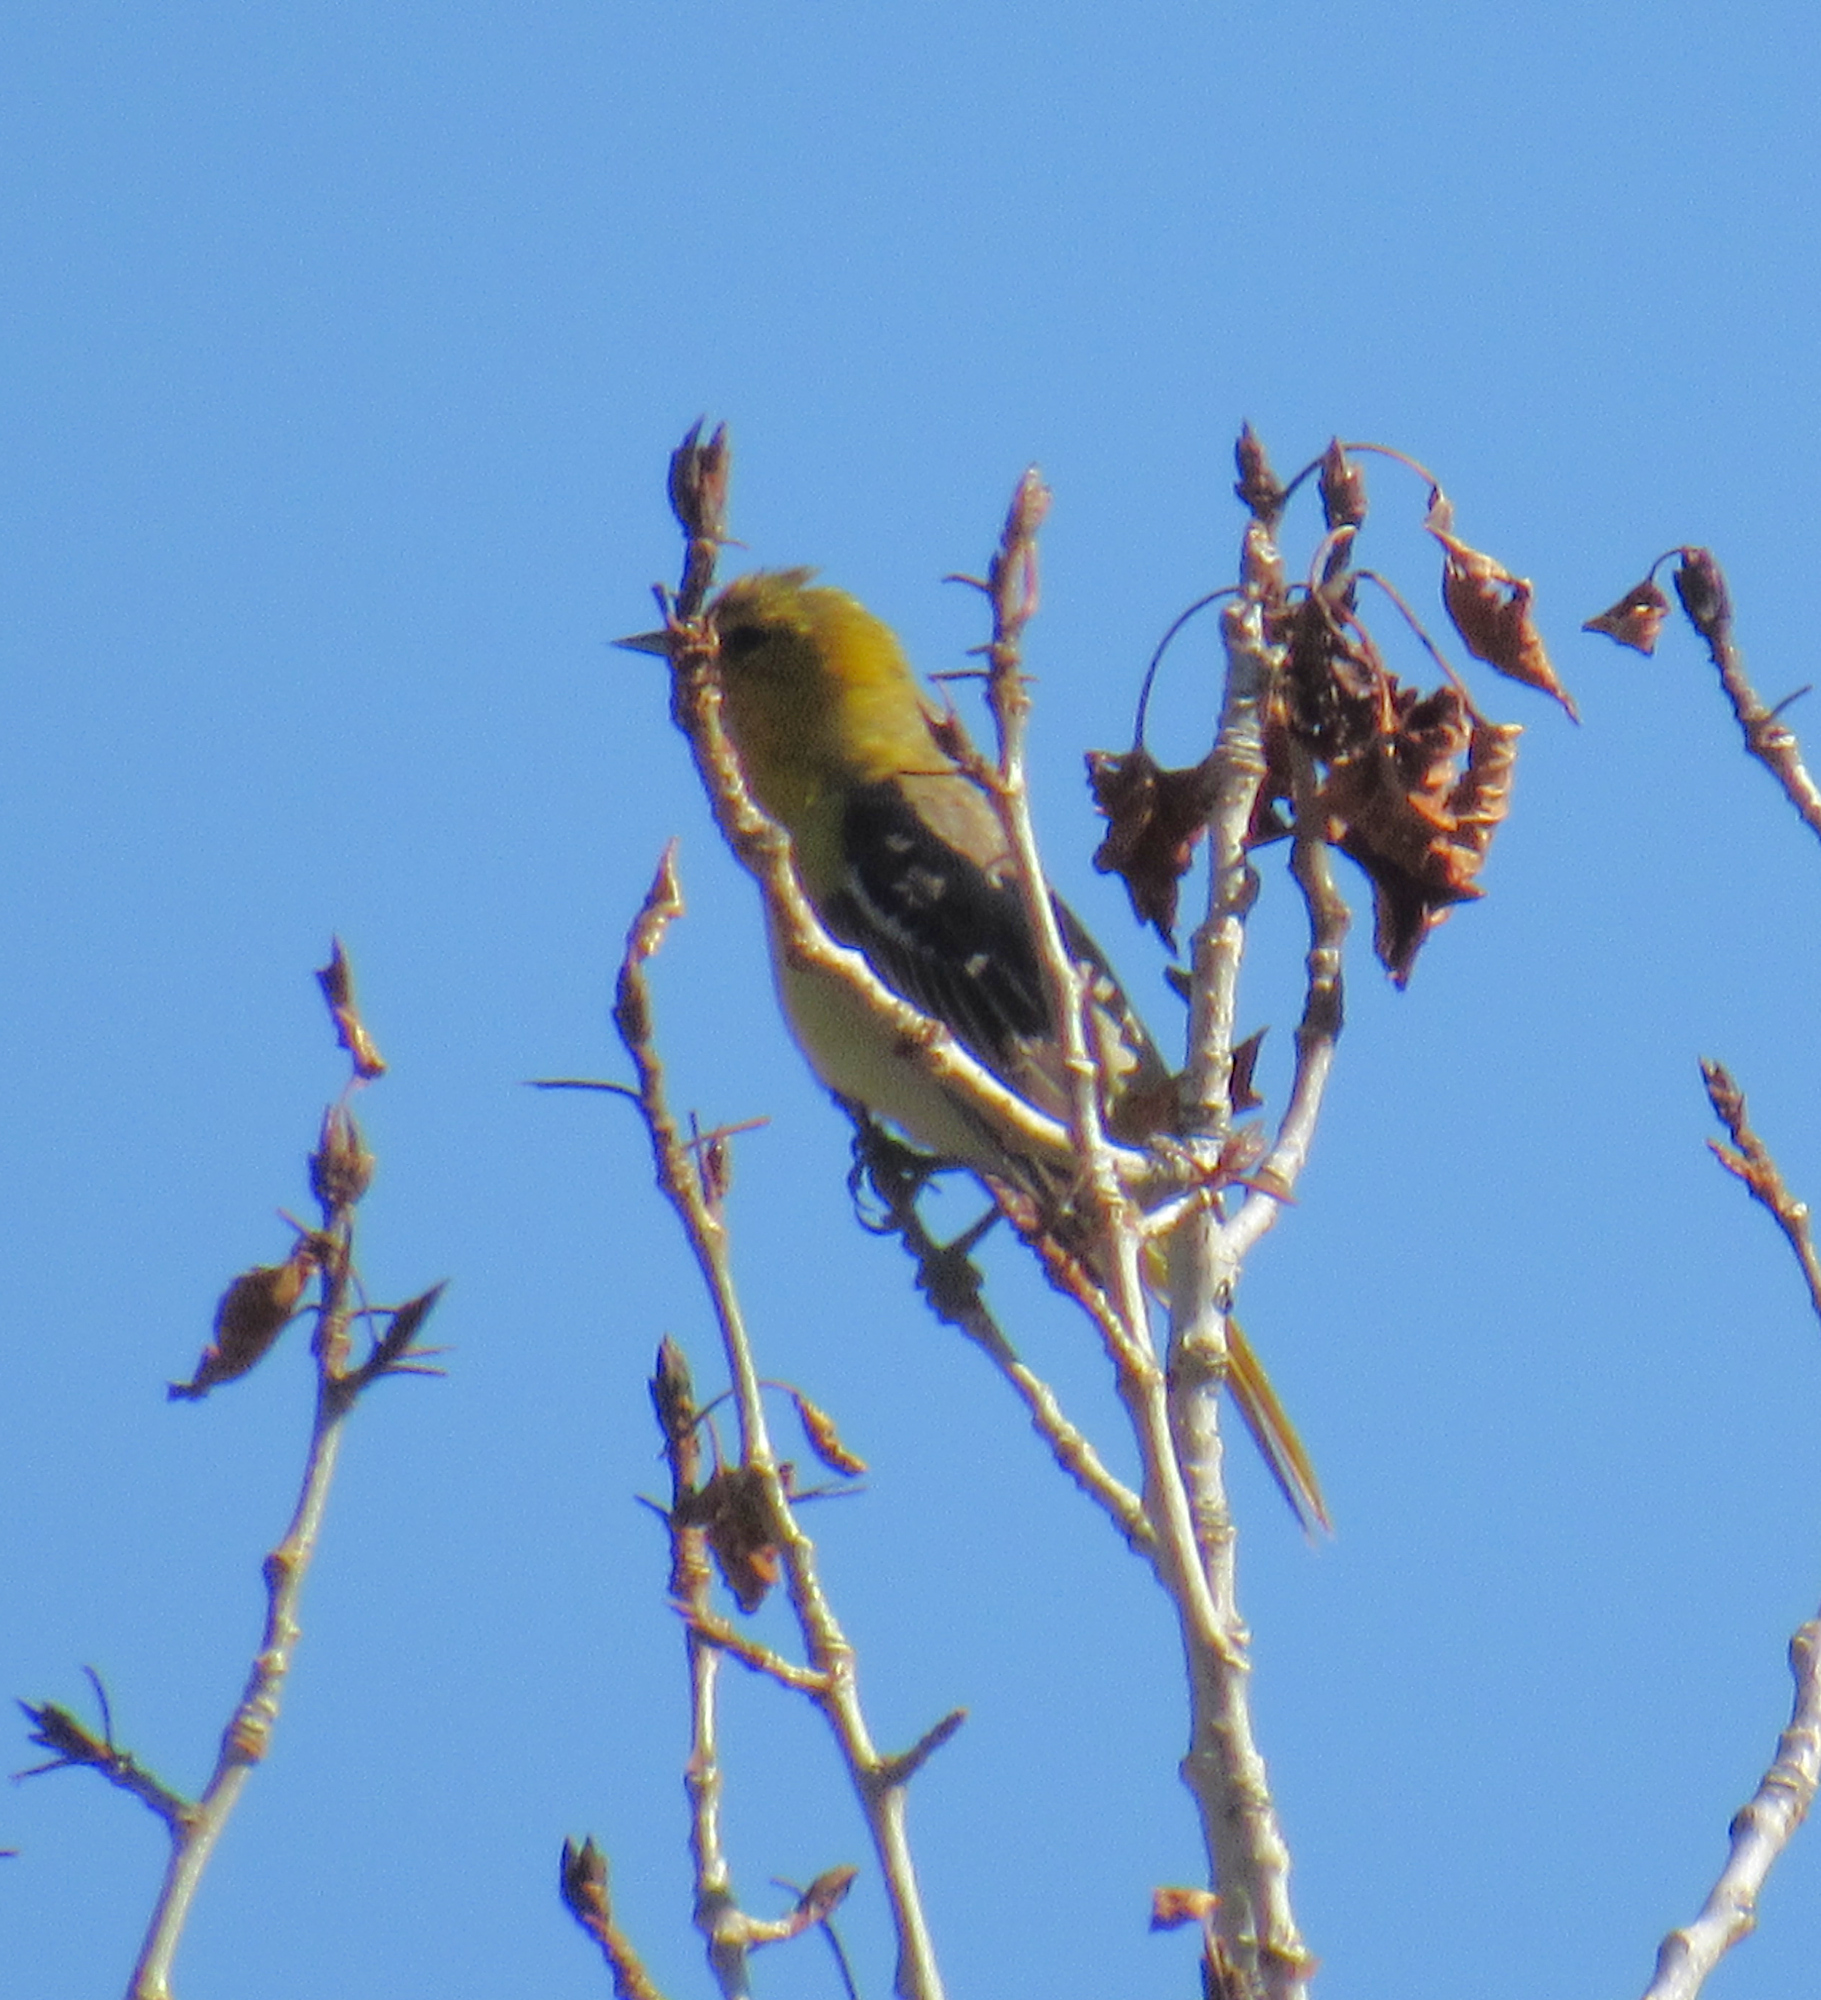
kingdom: Animalia
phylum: Chordata
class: Aves
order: Passeriformes
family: Icteridae
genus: Icterus
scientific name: Icterus bullockii
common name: Bullock's oriole
